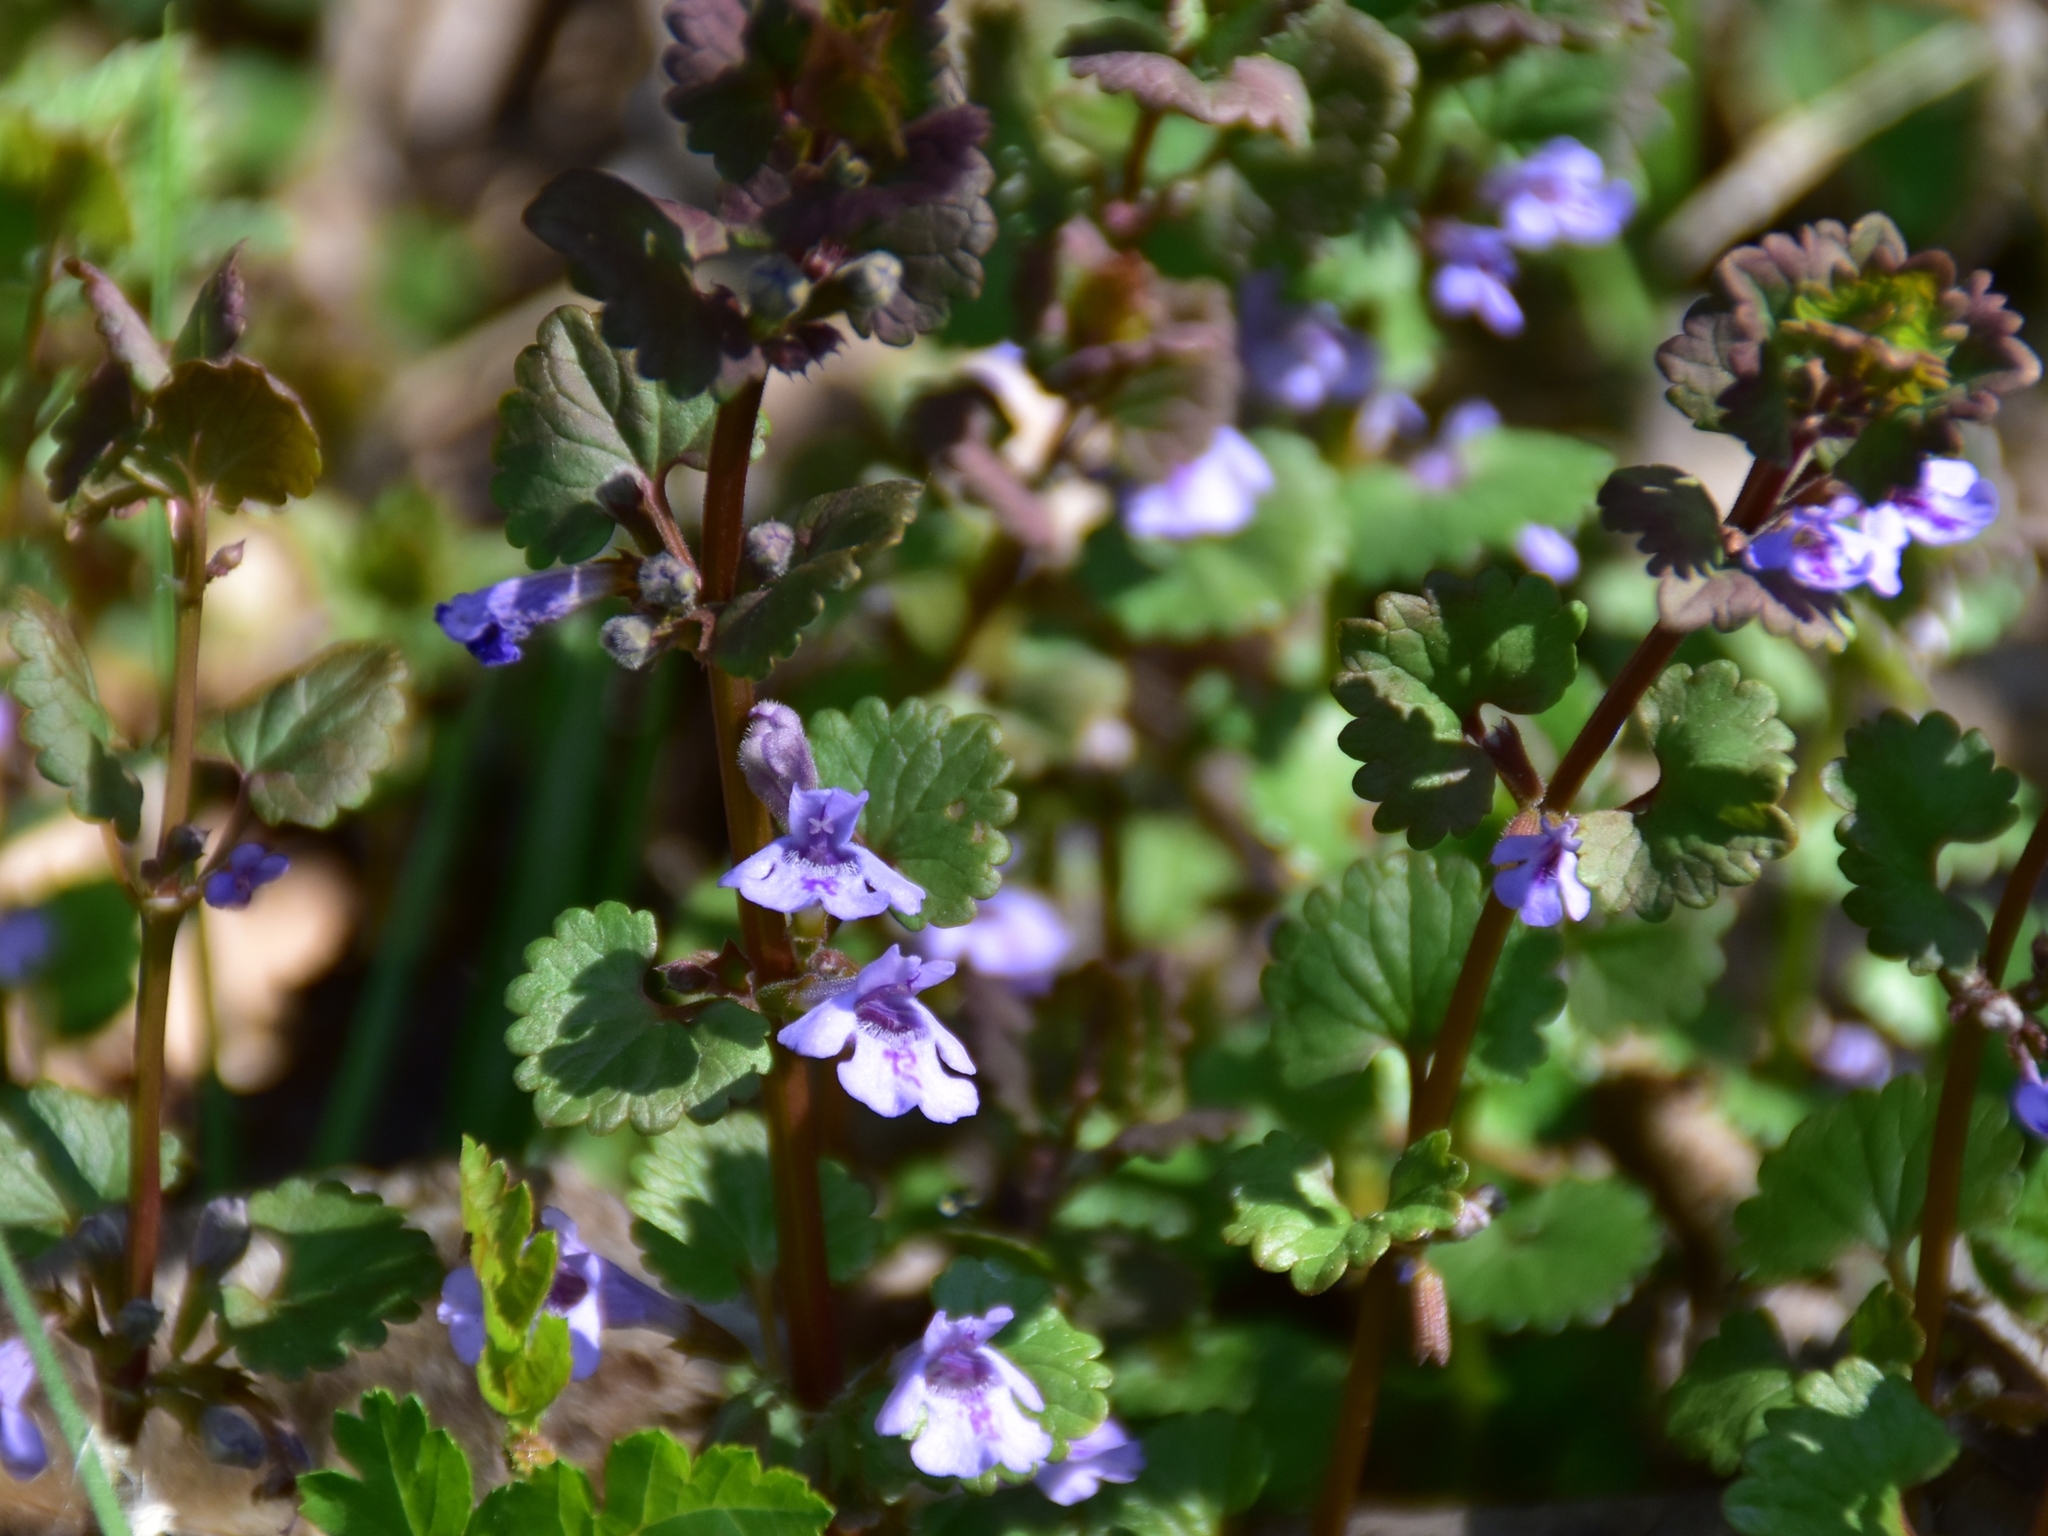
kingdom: Plantae
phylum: Tracheophyta
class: Magnoliopsida
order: Lamiales
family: Lamiaceae
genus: Glechoma
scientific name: Glechoma hederacea
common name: Ground ivy
